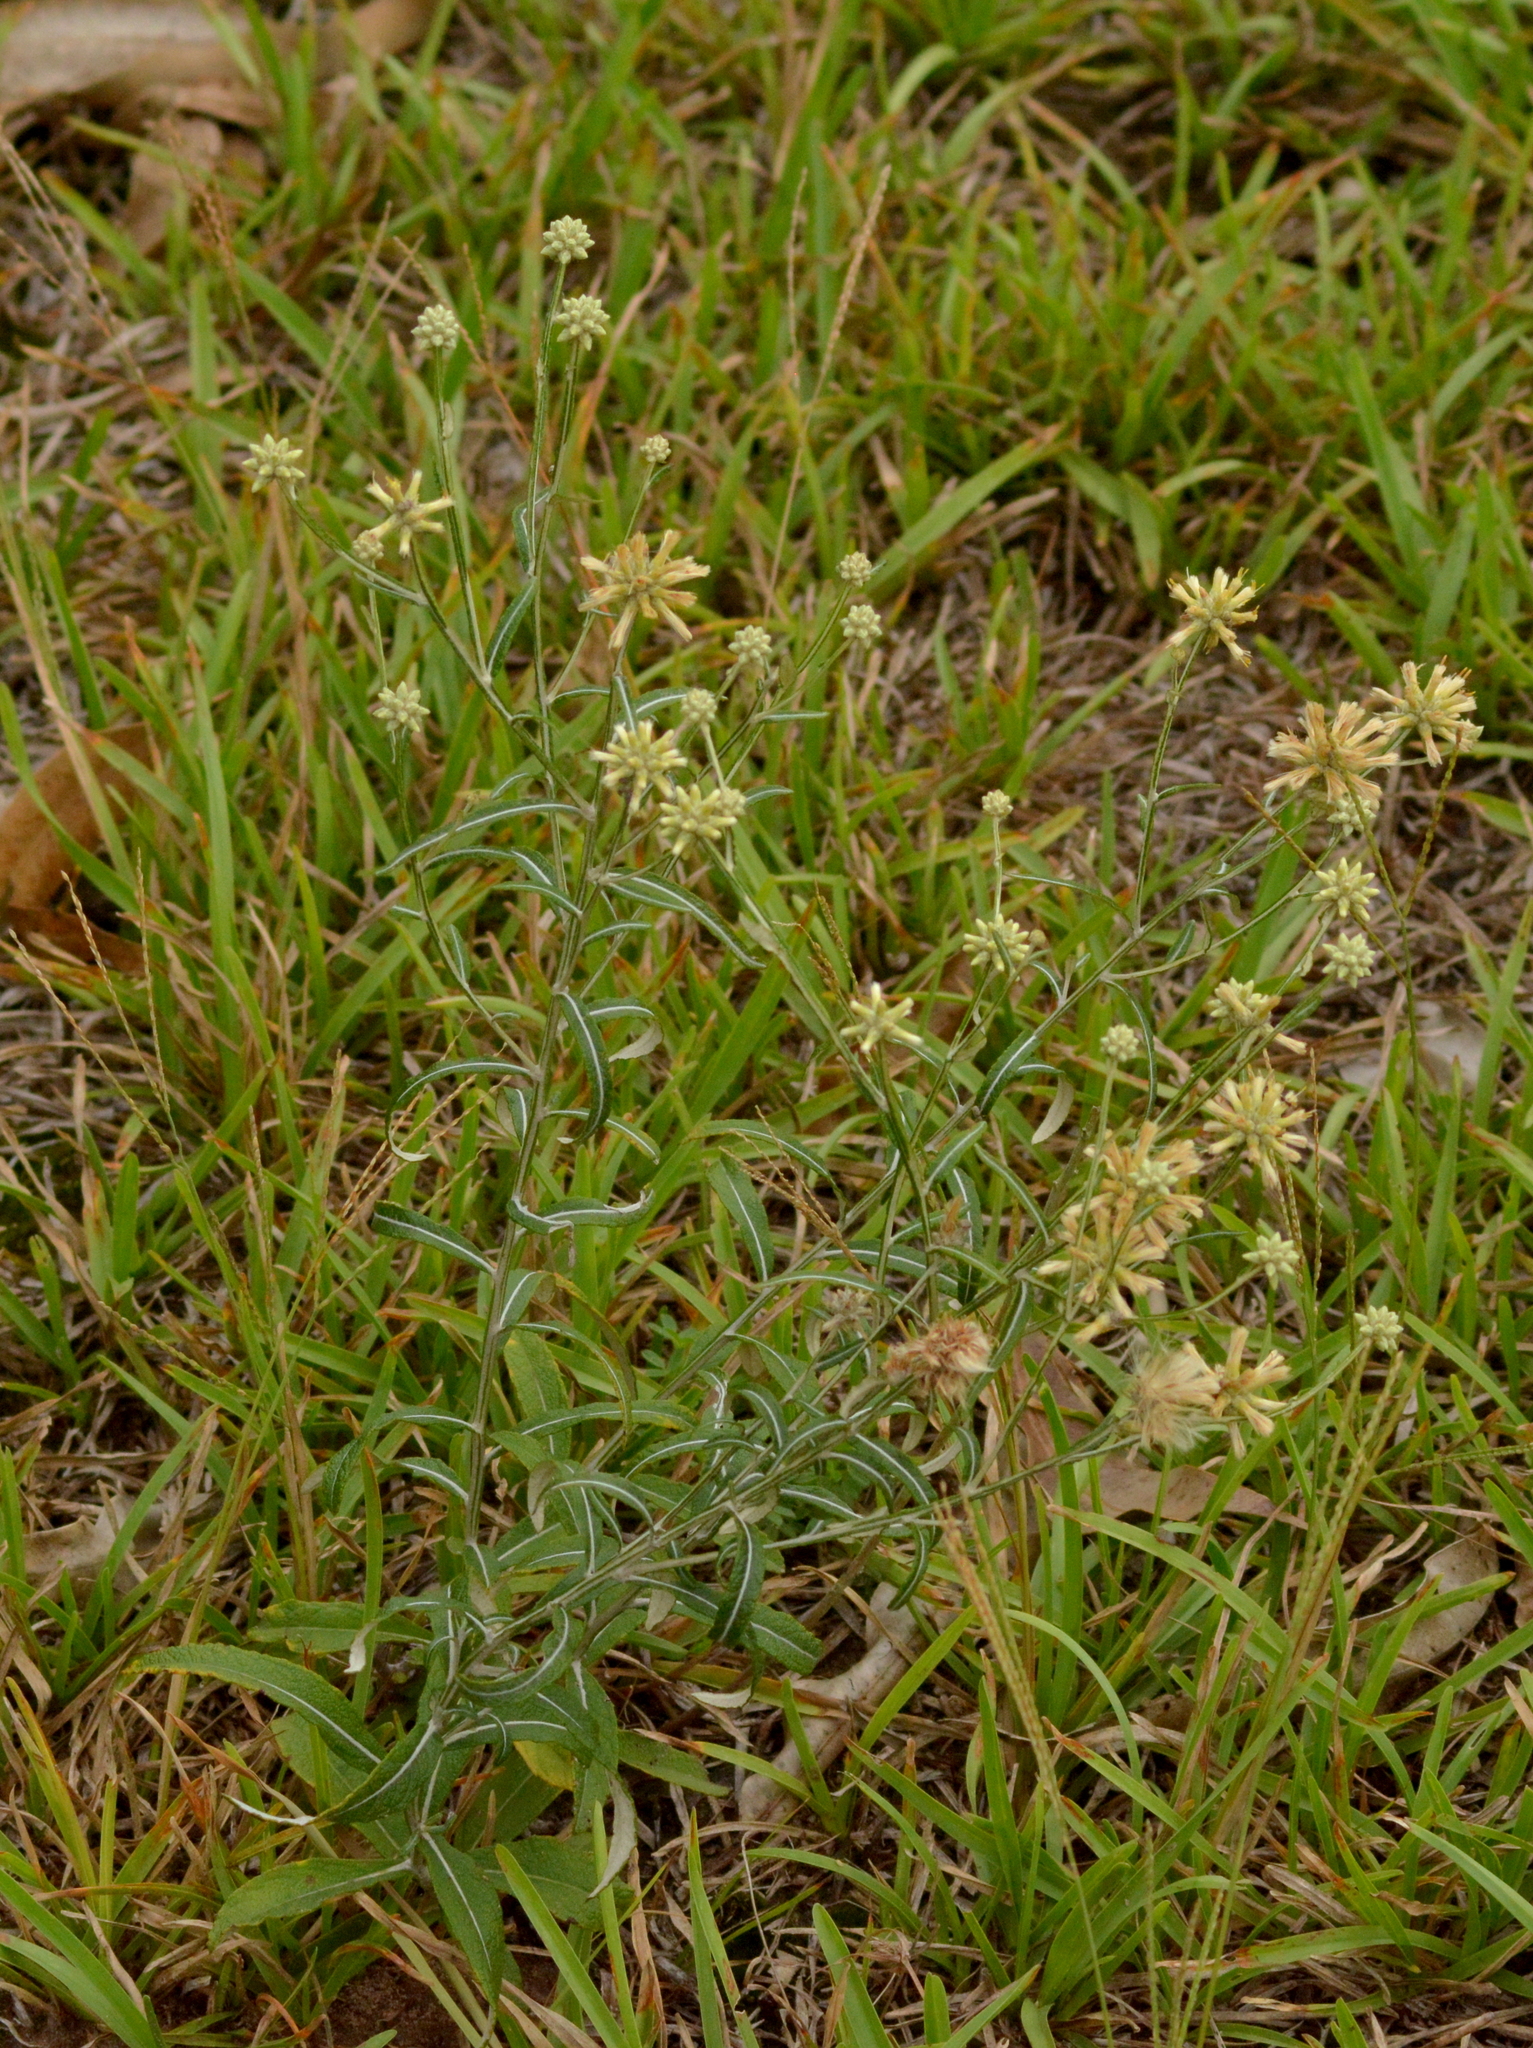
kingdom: Plantae
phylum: Tracheophyta
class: Magnoliopsida
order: Asterales
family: Asteraceae
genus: Pterocaulon
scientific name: Pterocaulon angustifolium
